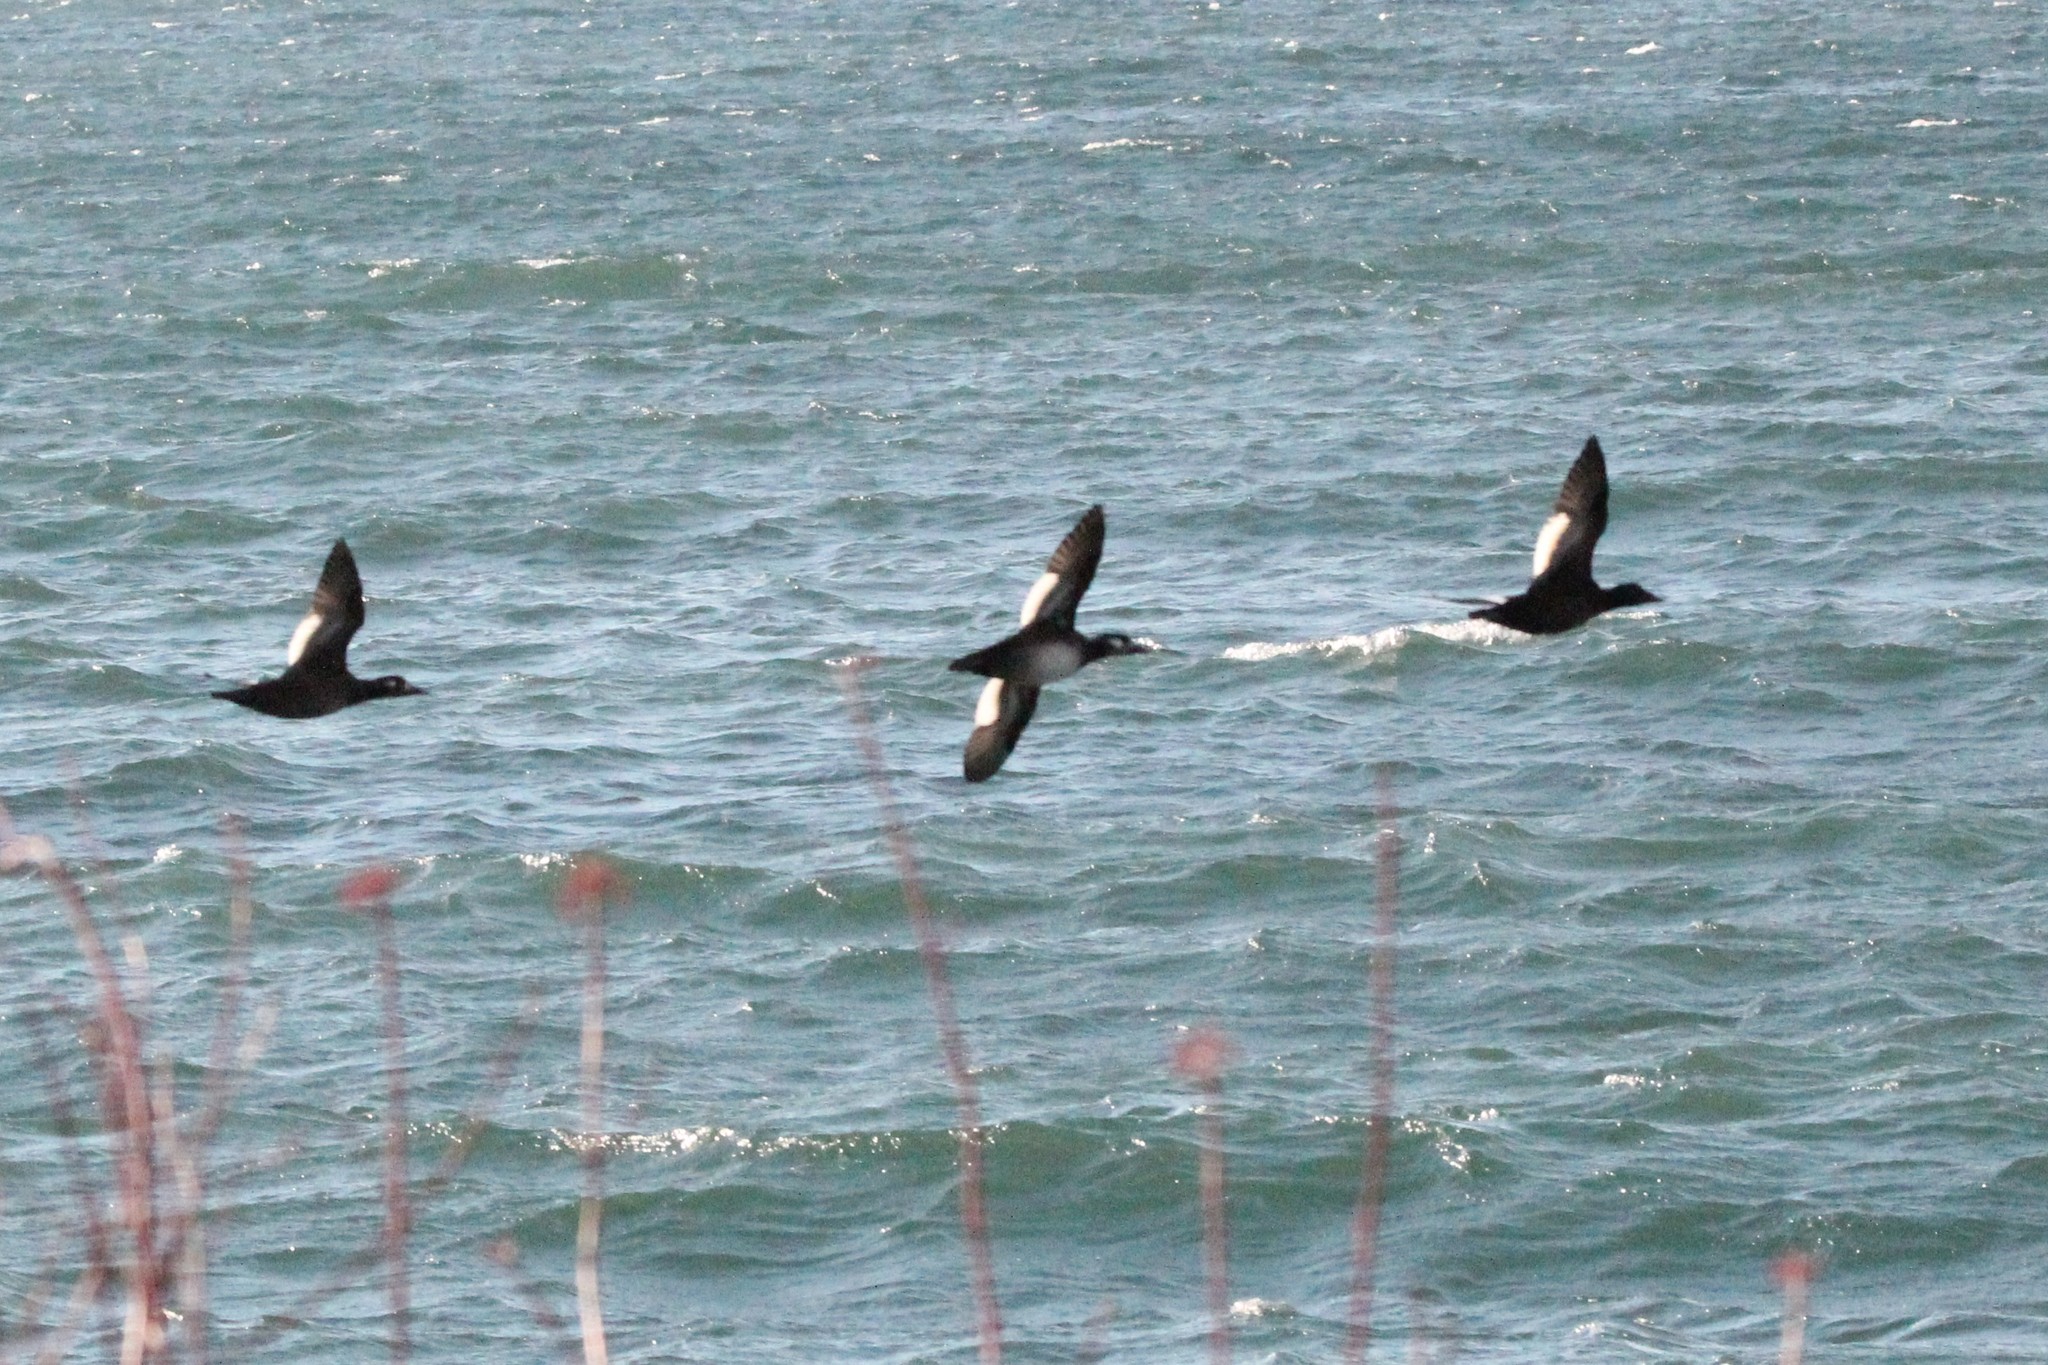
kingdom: Animalia
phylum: Chordata
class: Aves
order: Anseriformes
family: Anatidae
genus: Melanitta
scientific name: Melanitta deglandi
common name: White-winged scoter
